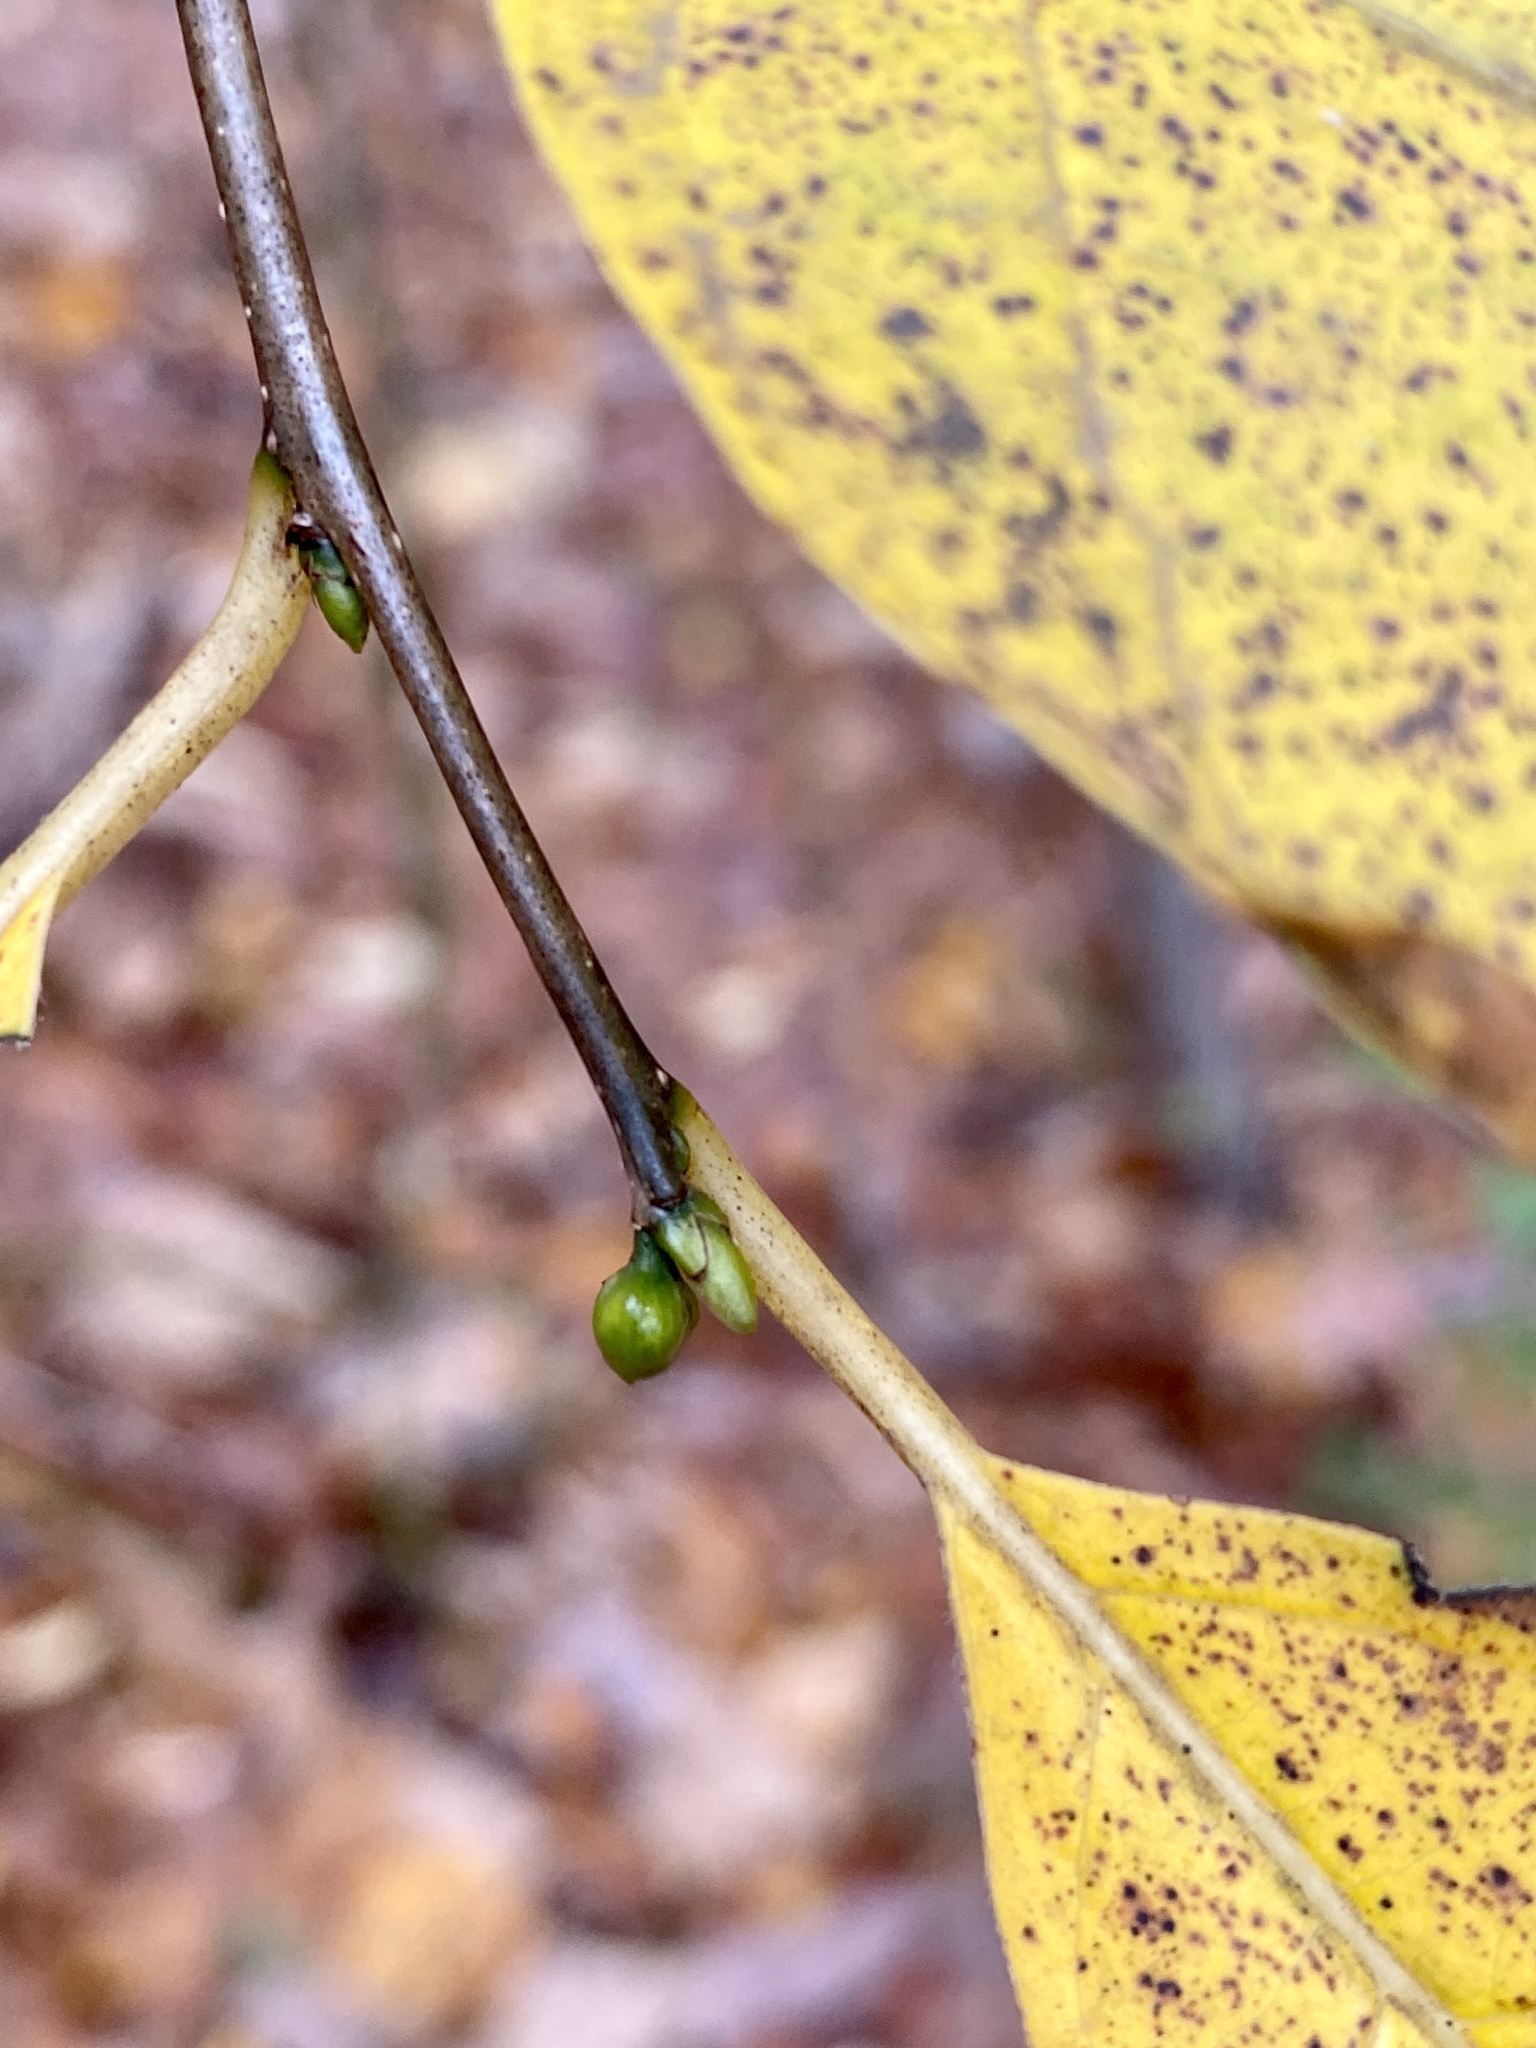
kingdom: Plantae
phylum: Tracheophyta
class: Magnoliopsida
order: Laurales
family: Lauraceae
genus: Lindera
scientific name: Lindera benzoin
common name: Spicebush
